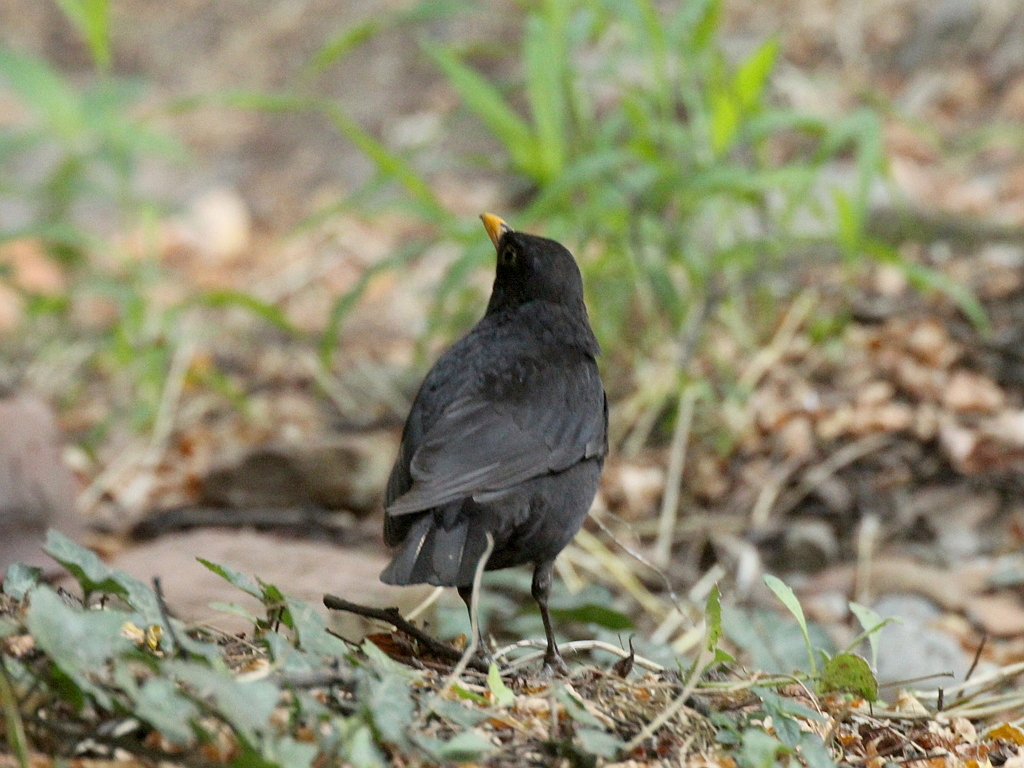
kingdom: Animalia
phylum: Chordata
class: Aves
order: Passeriformes
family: Turdidae
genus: Turdus
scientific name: Turdus merula
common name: Common blackbird
